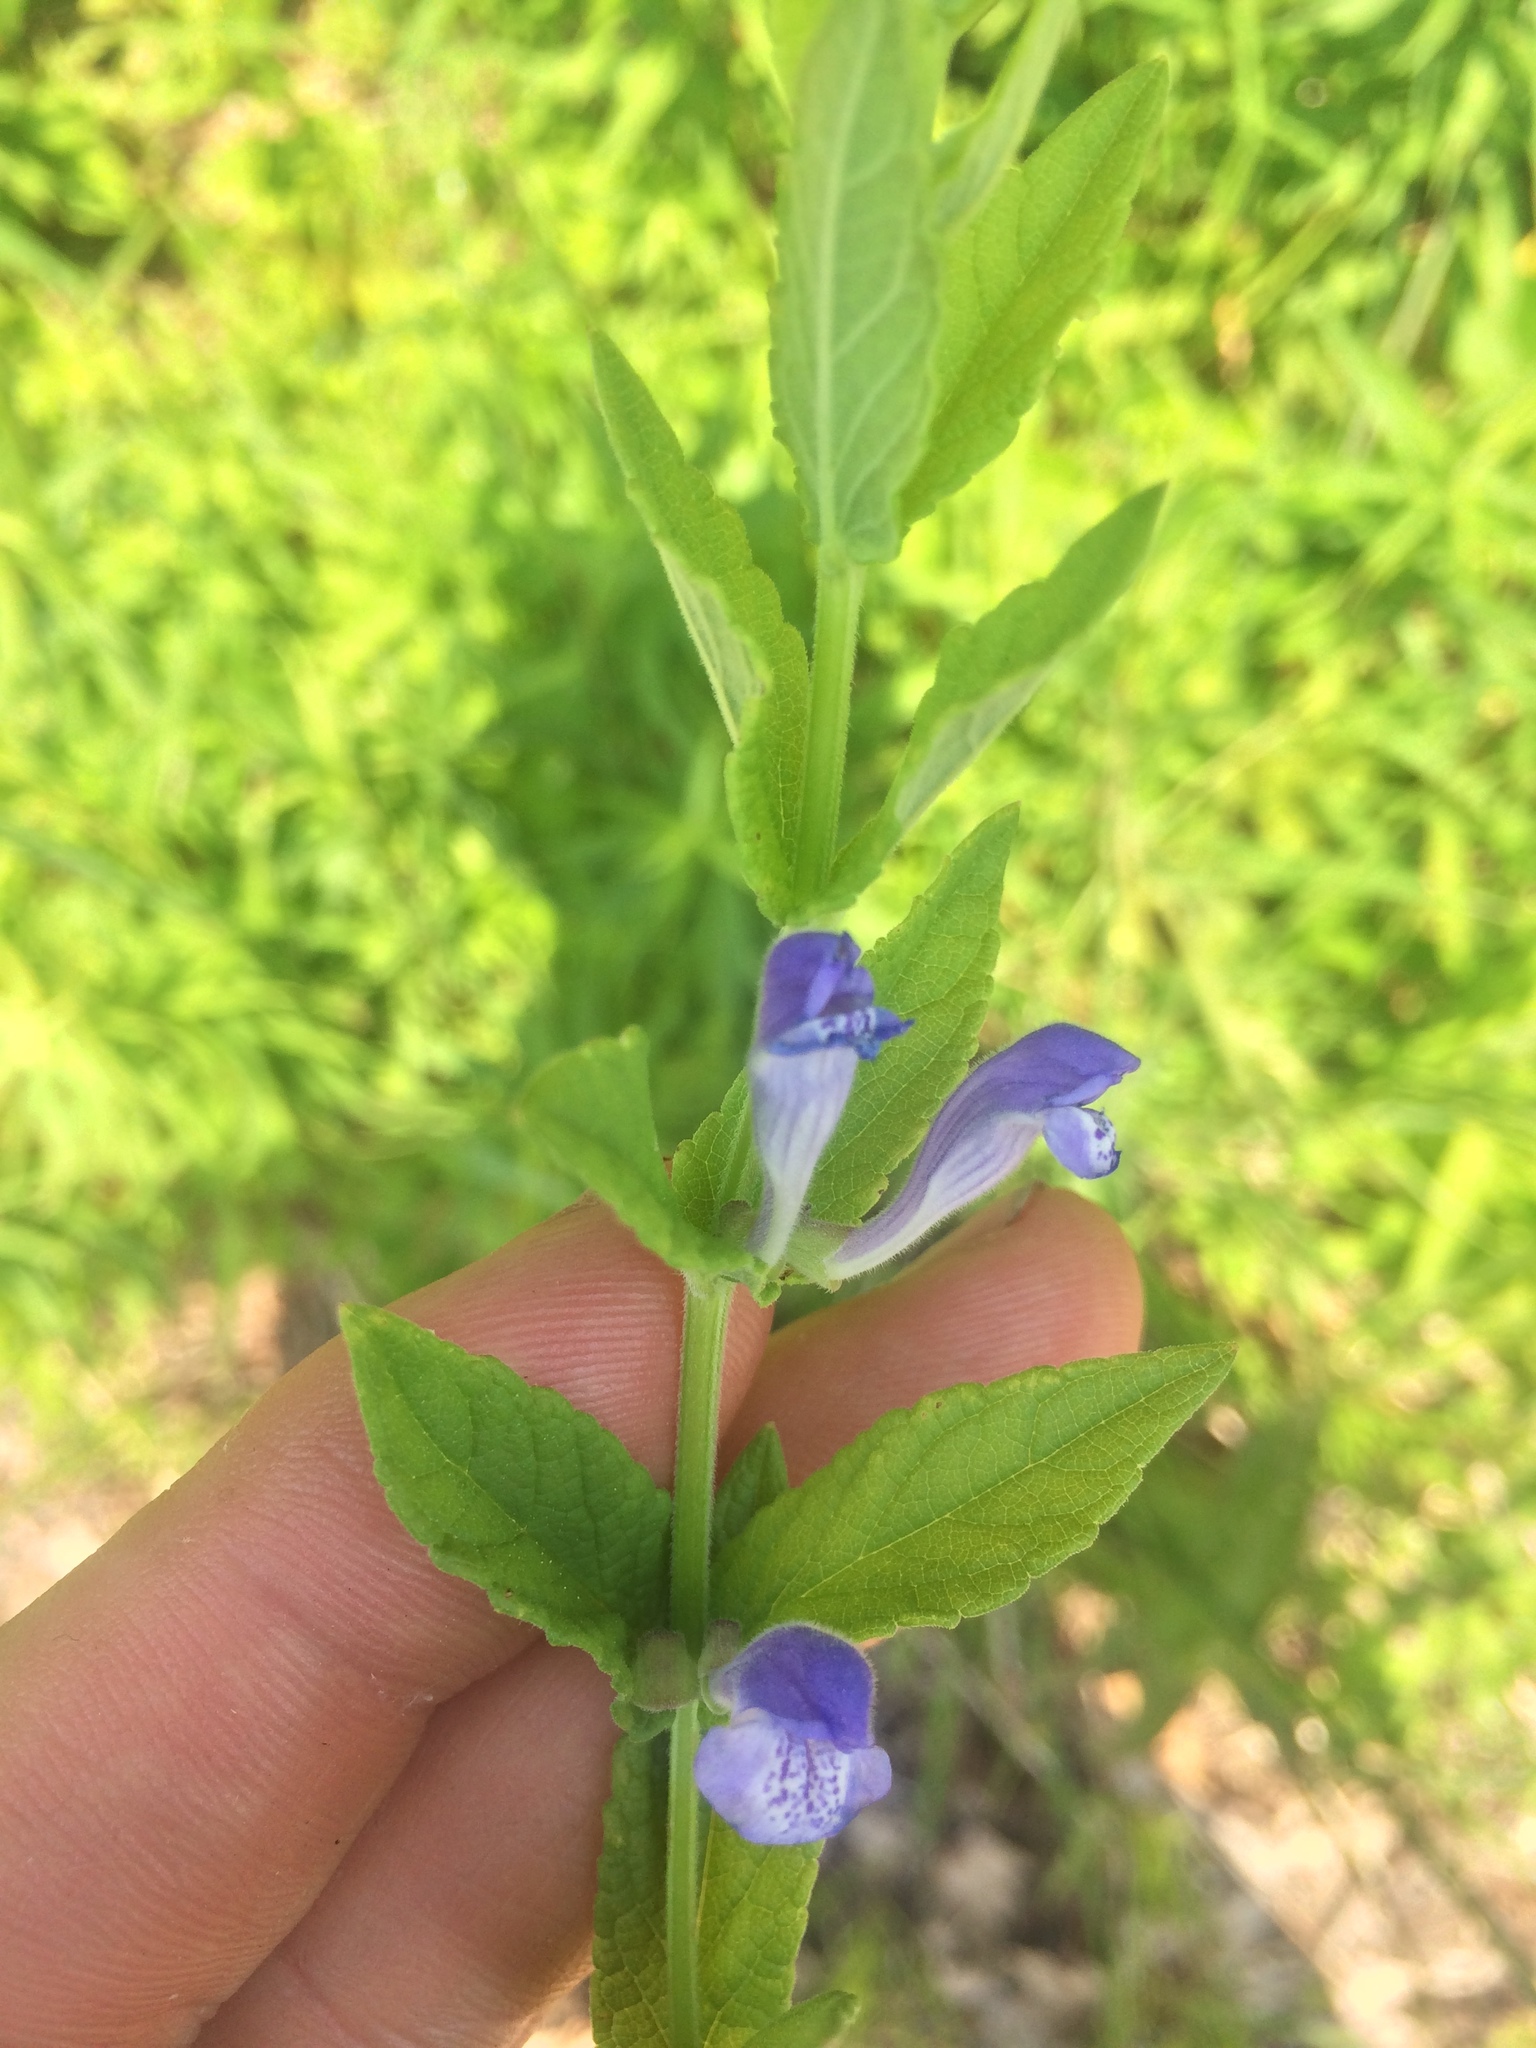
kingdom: Plantae
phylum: Tracheophyta
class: Magnoliopsida
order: Lamiales
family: Lamiaceae
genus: Scutellaria
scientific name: Scutellaria galericulata
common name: Skullcap
